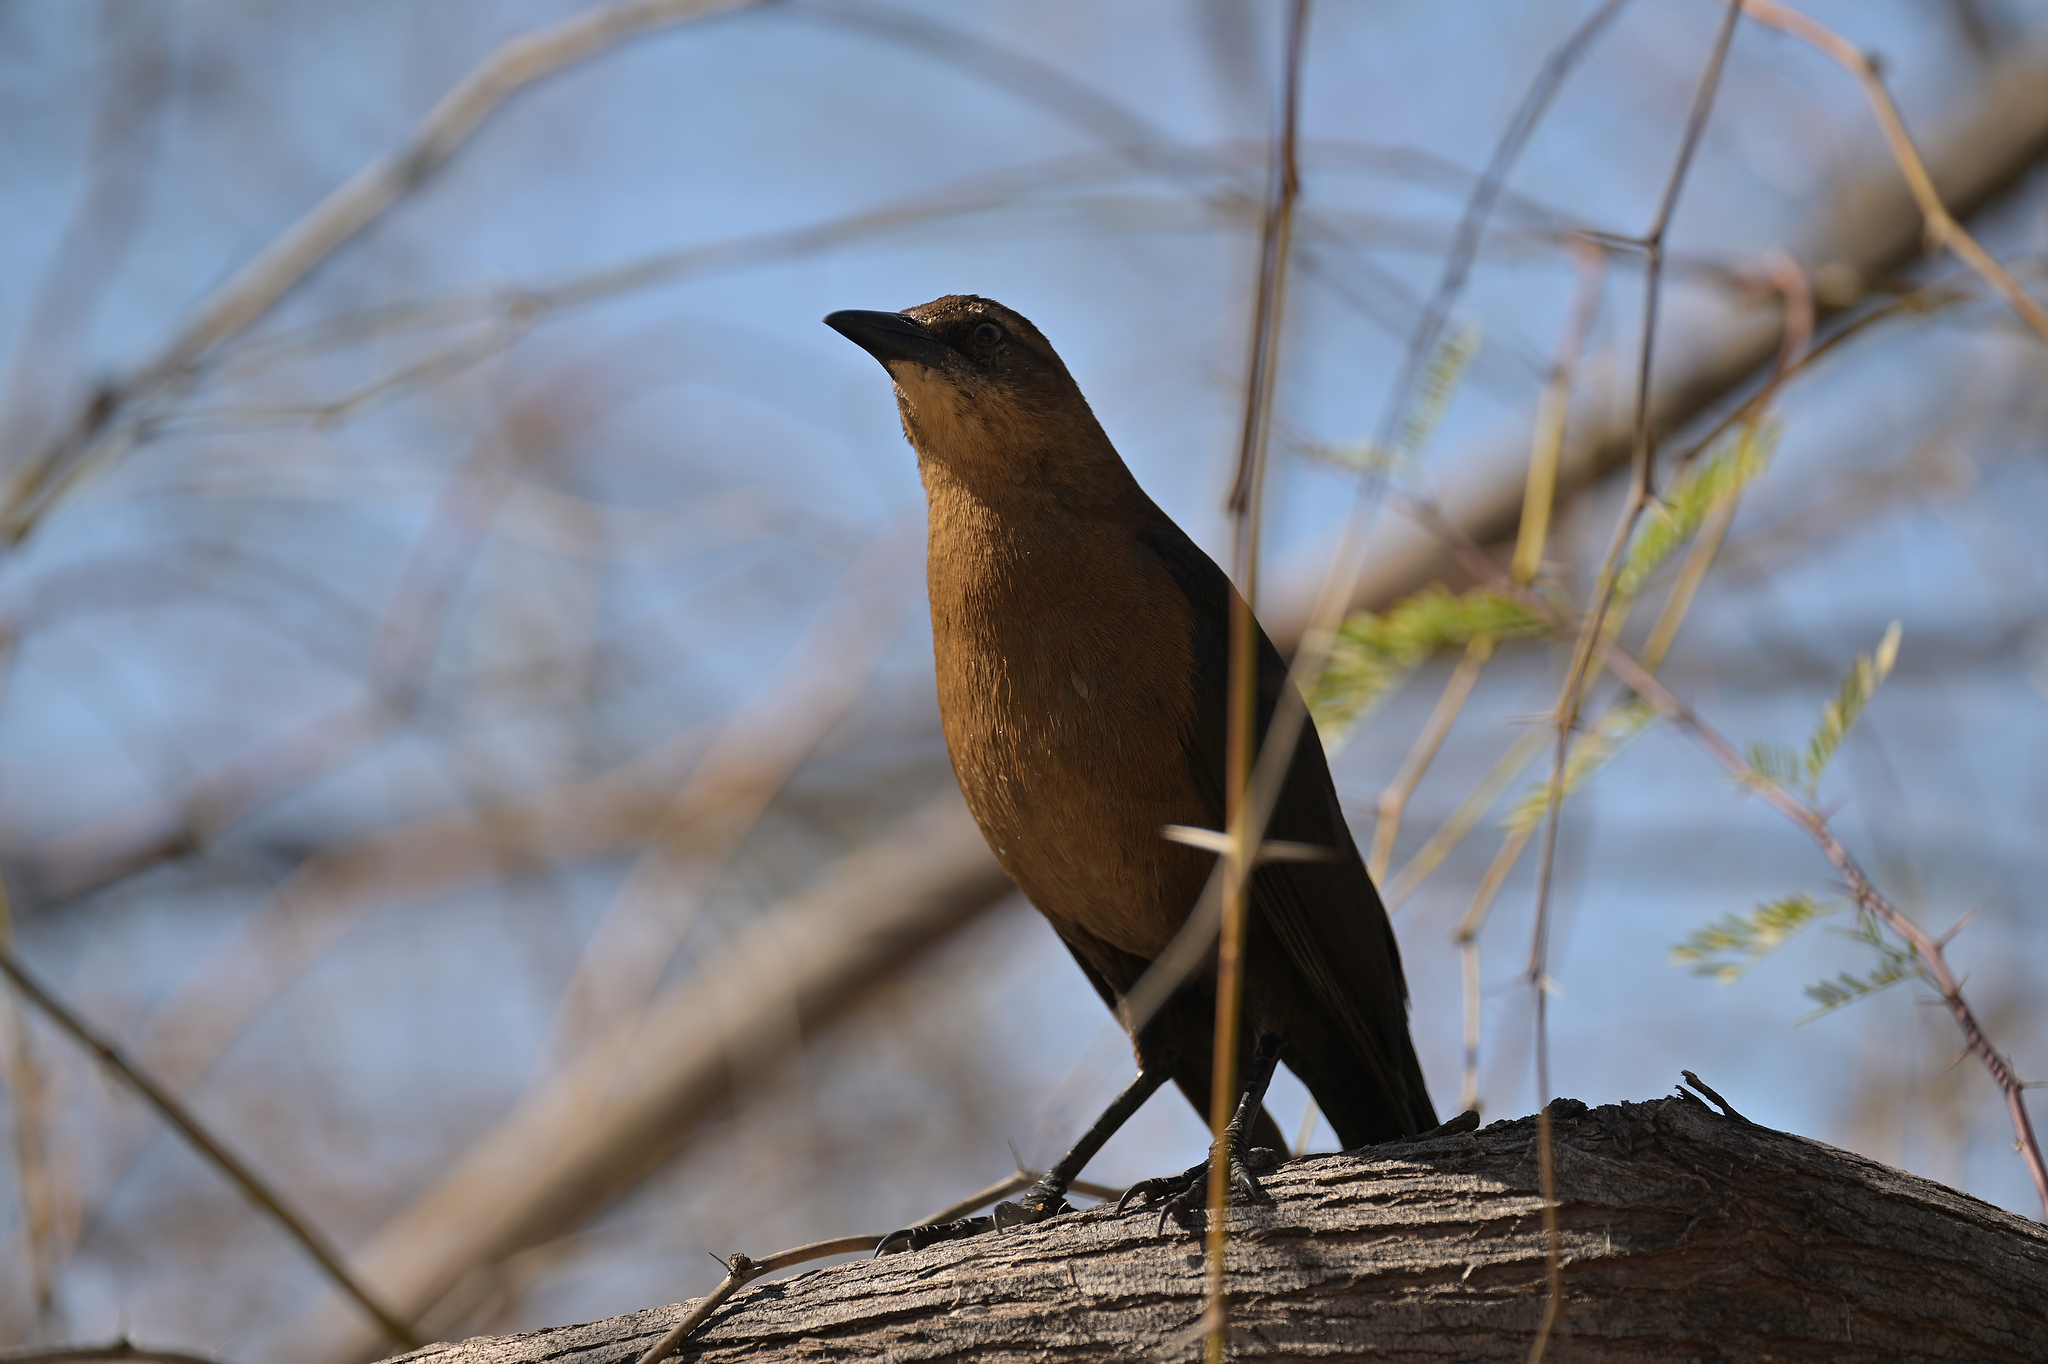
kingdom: Animalia
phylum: Chordata
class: Aves
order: Passeriformes
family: Icteridae
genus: Quiscalus
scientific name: Quiscalus mexicanus
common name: Great-tailed grackle
